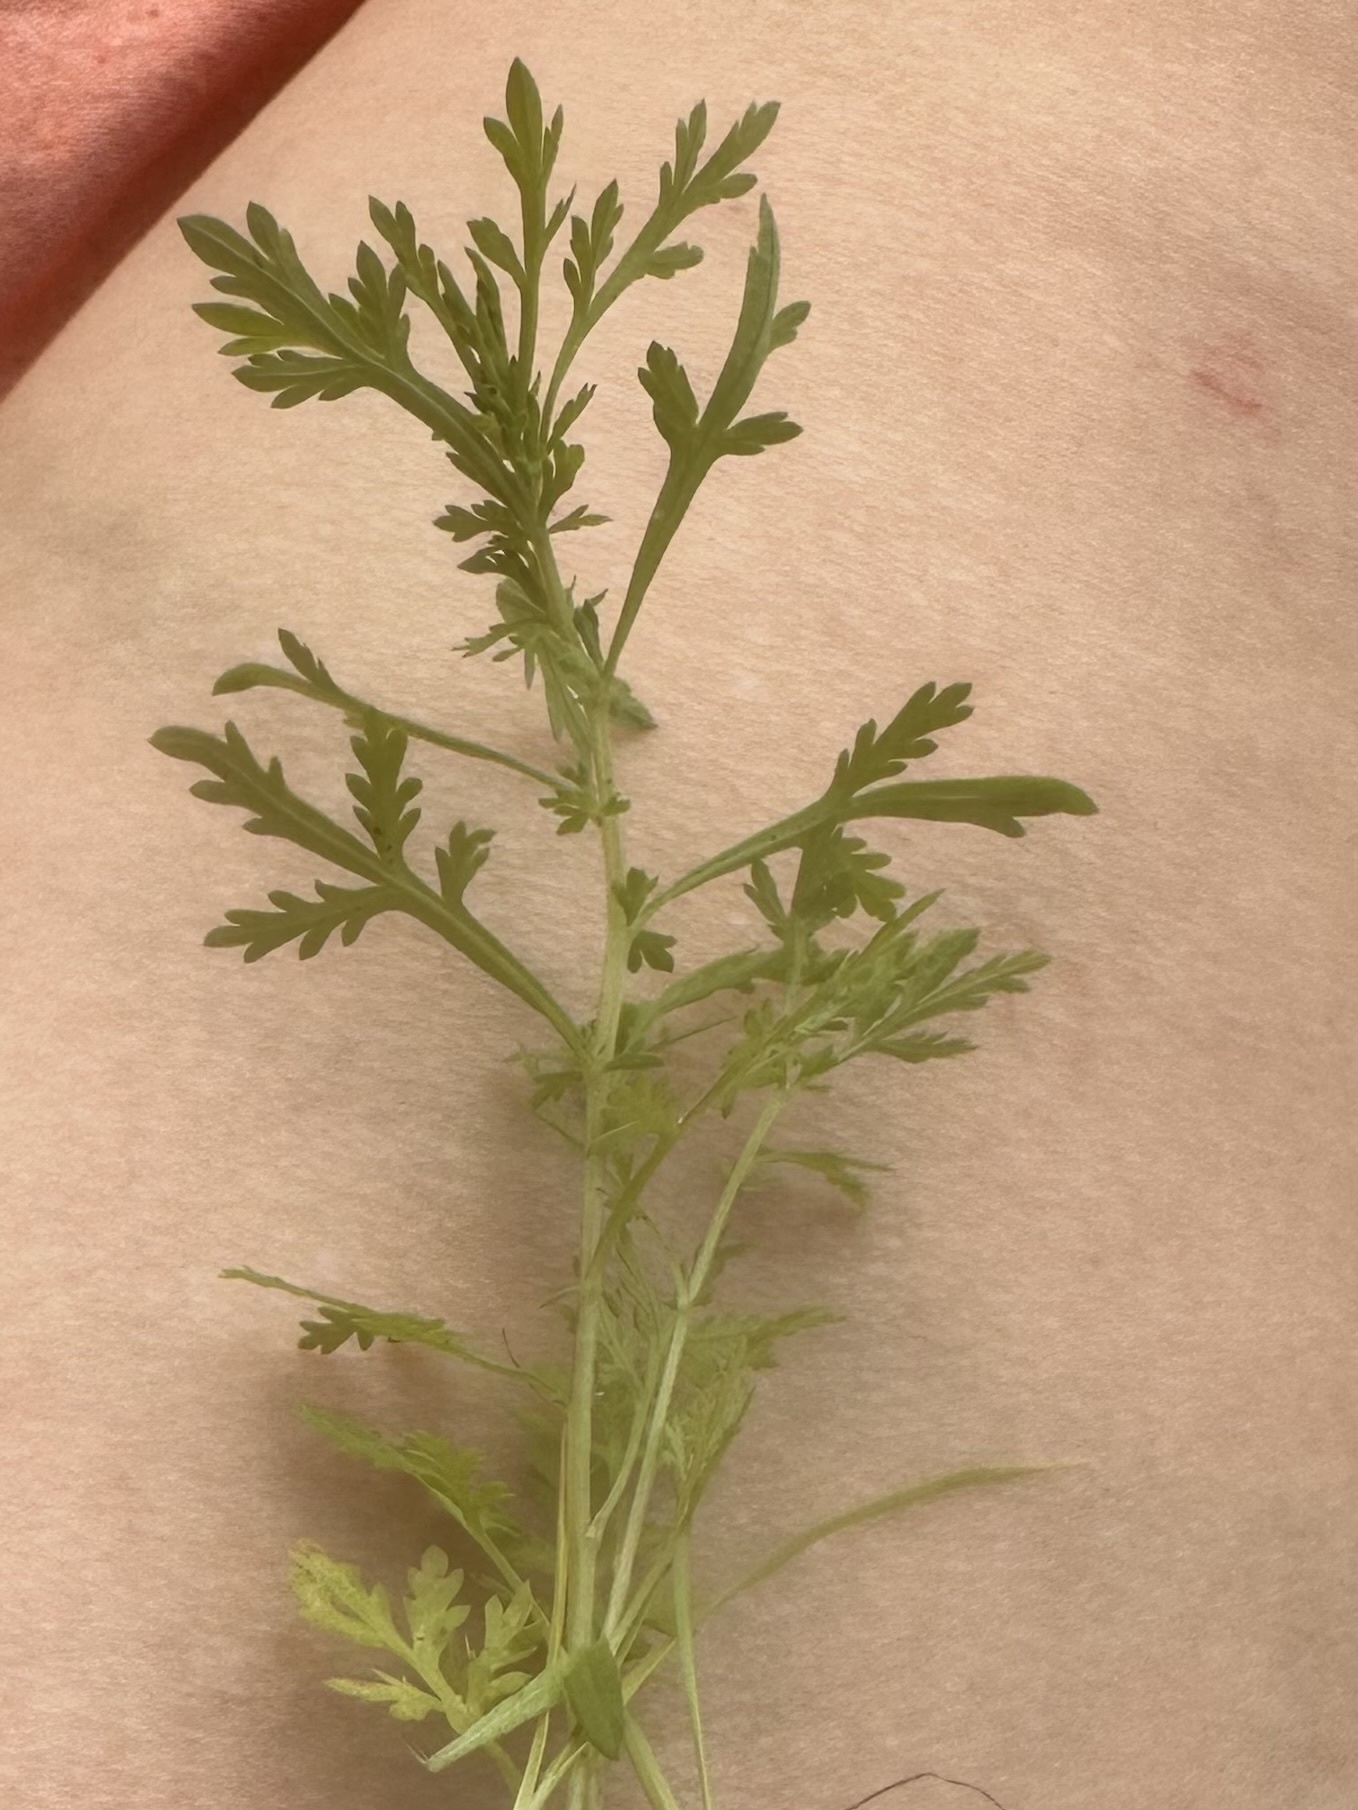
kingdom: Plantae
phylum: Tracheophyta
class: Magnoliopsida
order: Asterales
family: Asteraceae
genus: Artemisia
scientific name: Artemisia annua
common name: Sweet sagewort
